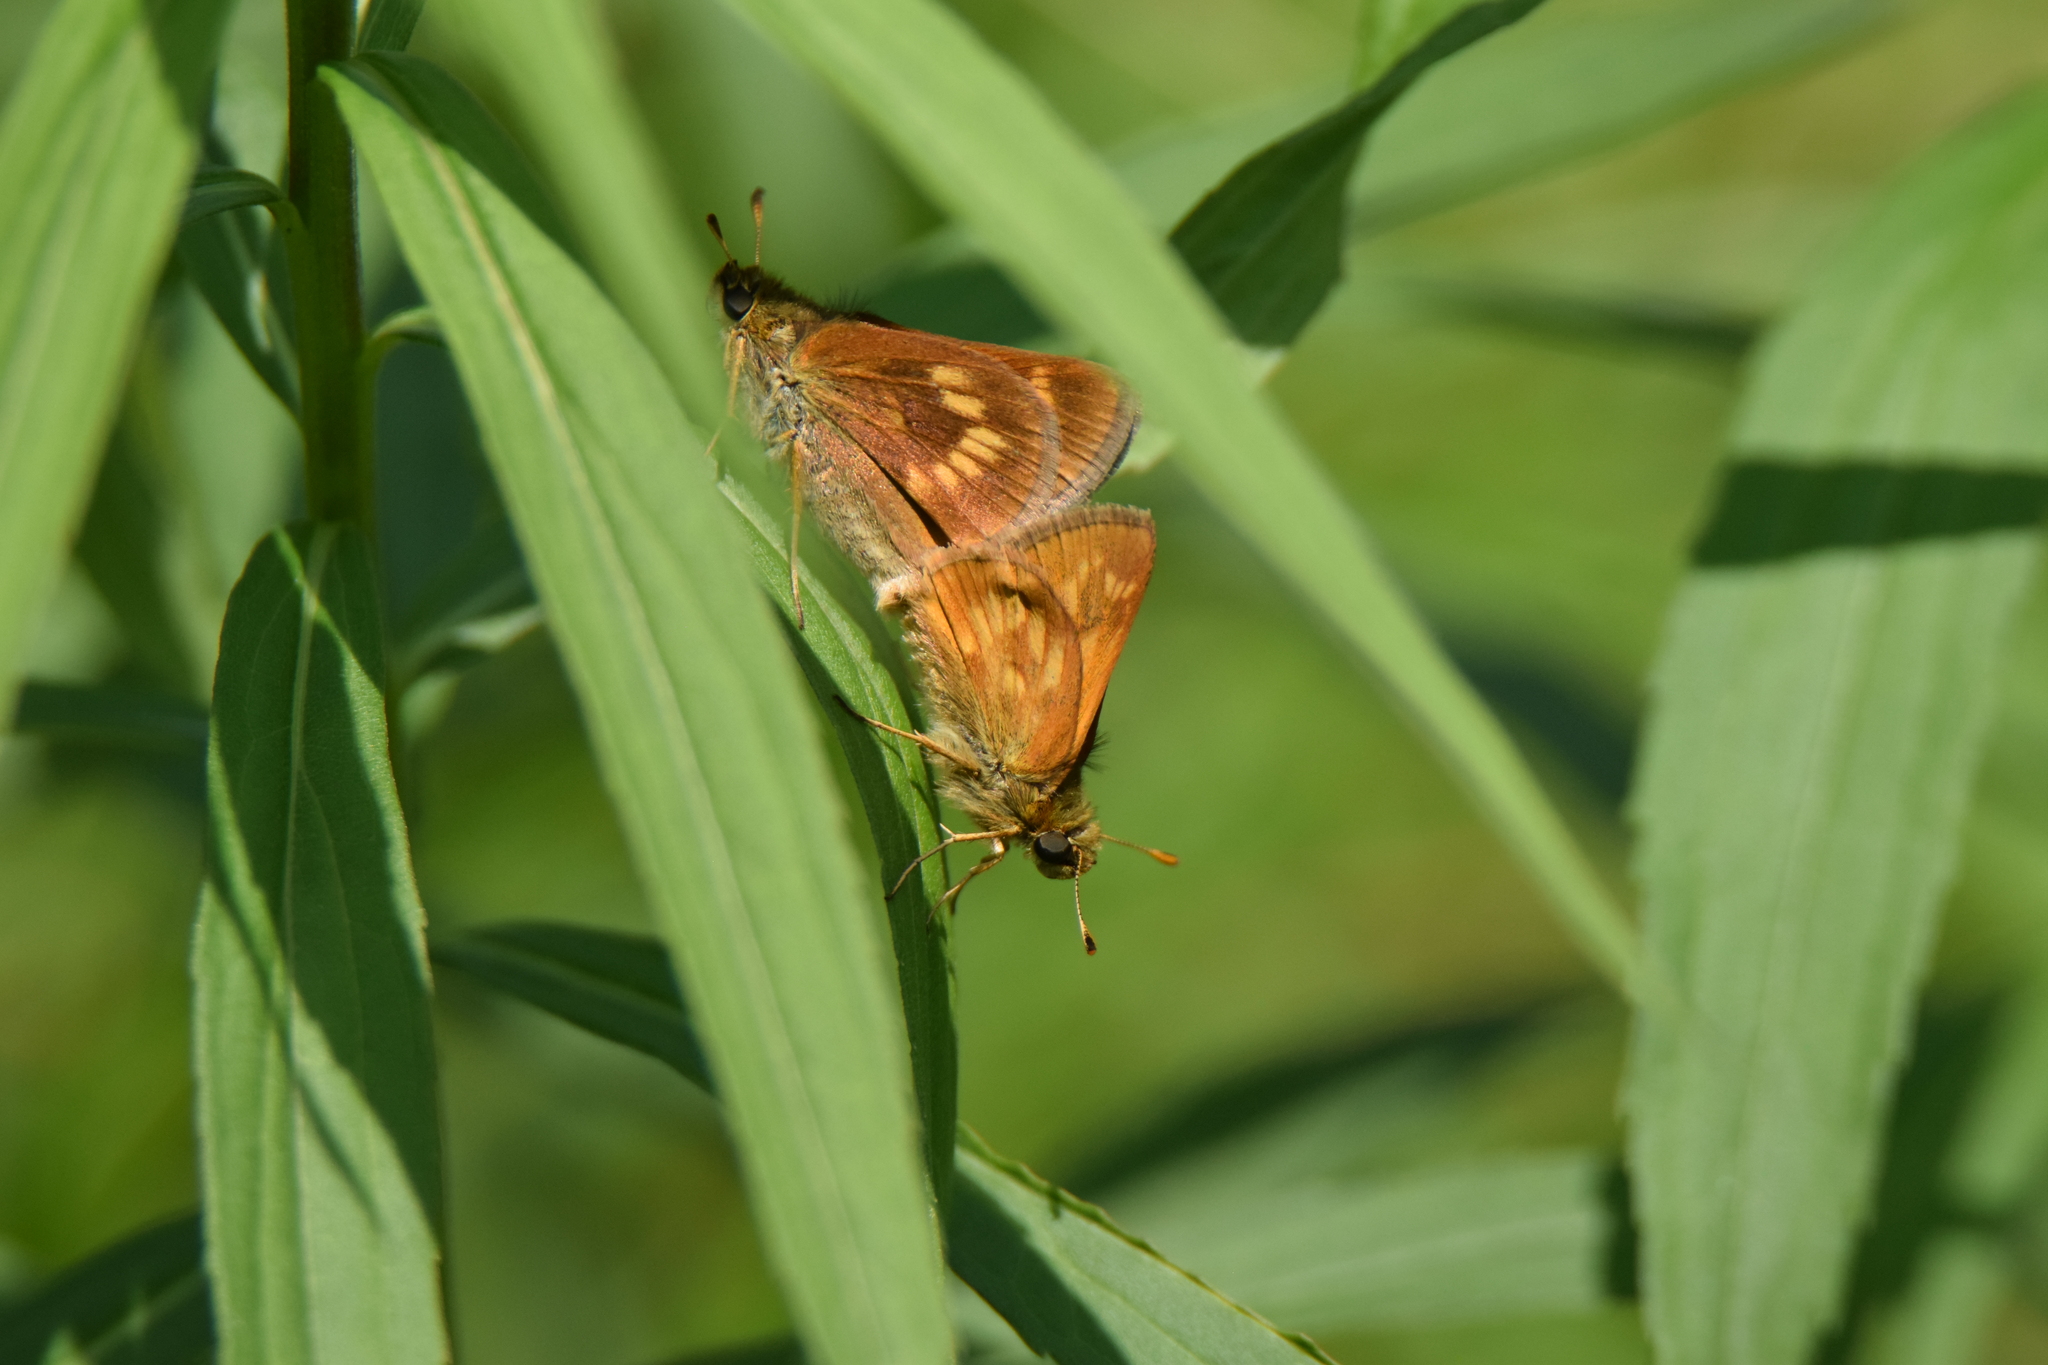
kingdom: Animalia
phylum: Arthropoda
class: Insecta
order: Lepidoptera
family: Hesperiidae
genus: Polites
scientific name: Polites mystic
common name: Long dash
